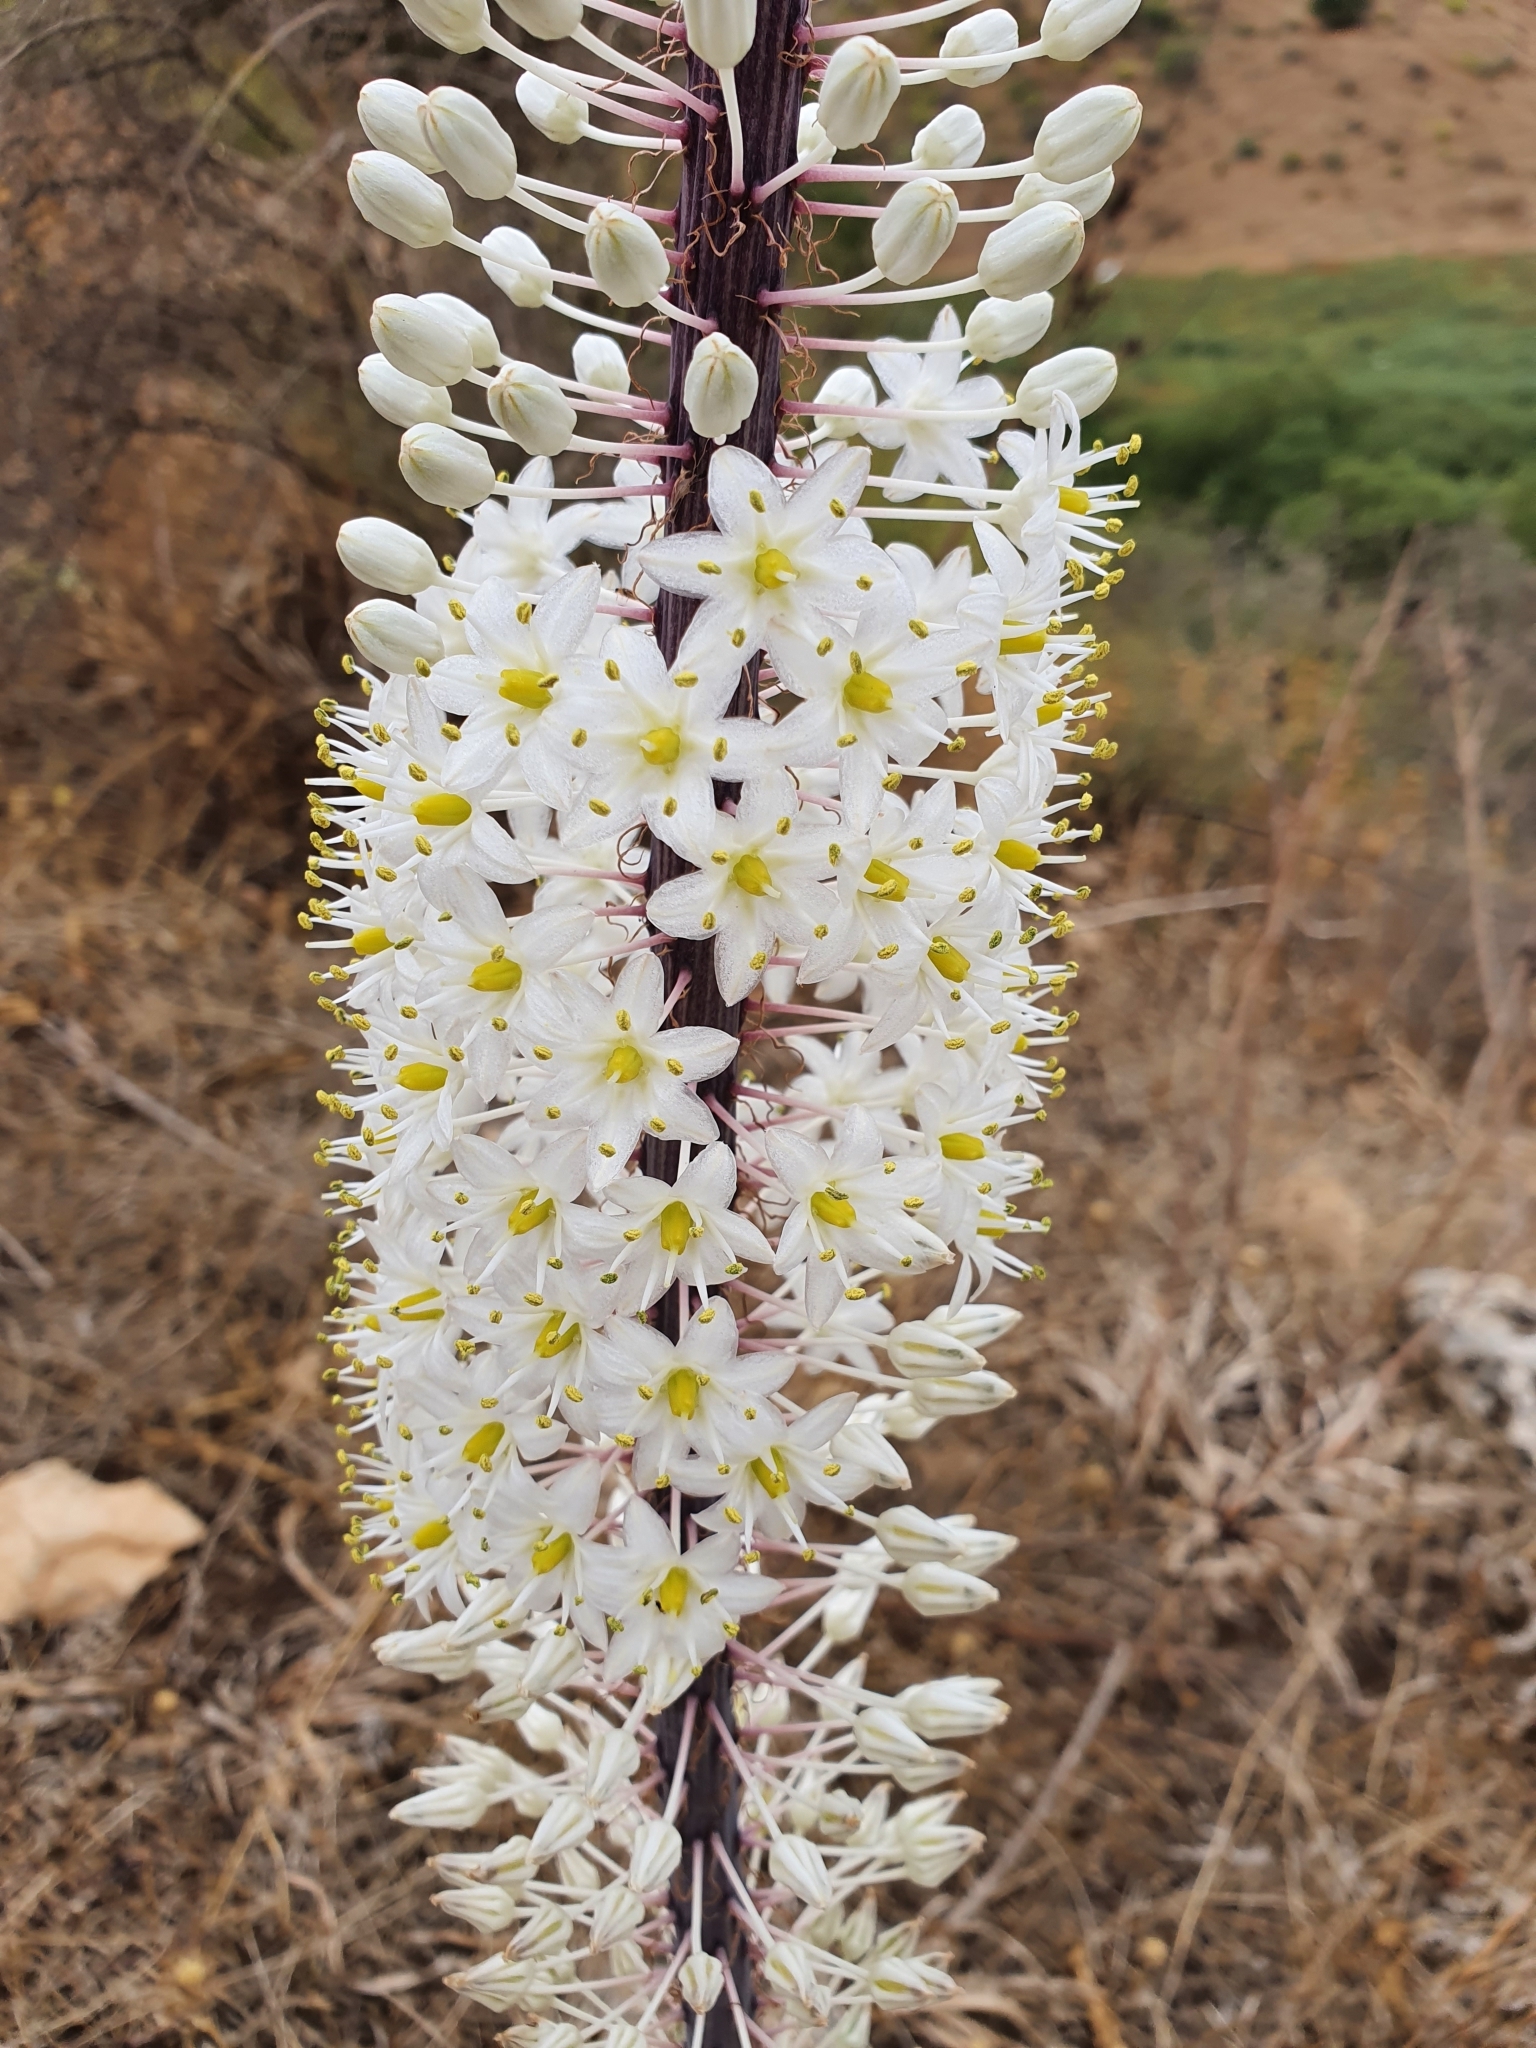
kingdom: Plantae
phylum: Tracheophyta
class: Liliopsida
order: Asparagales
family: Asparagaceae
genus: Drimia
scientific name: Drimia numidica
